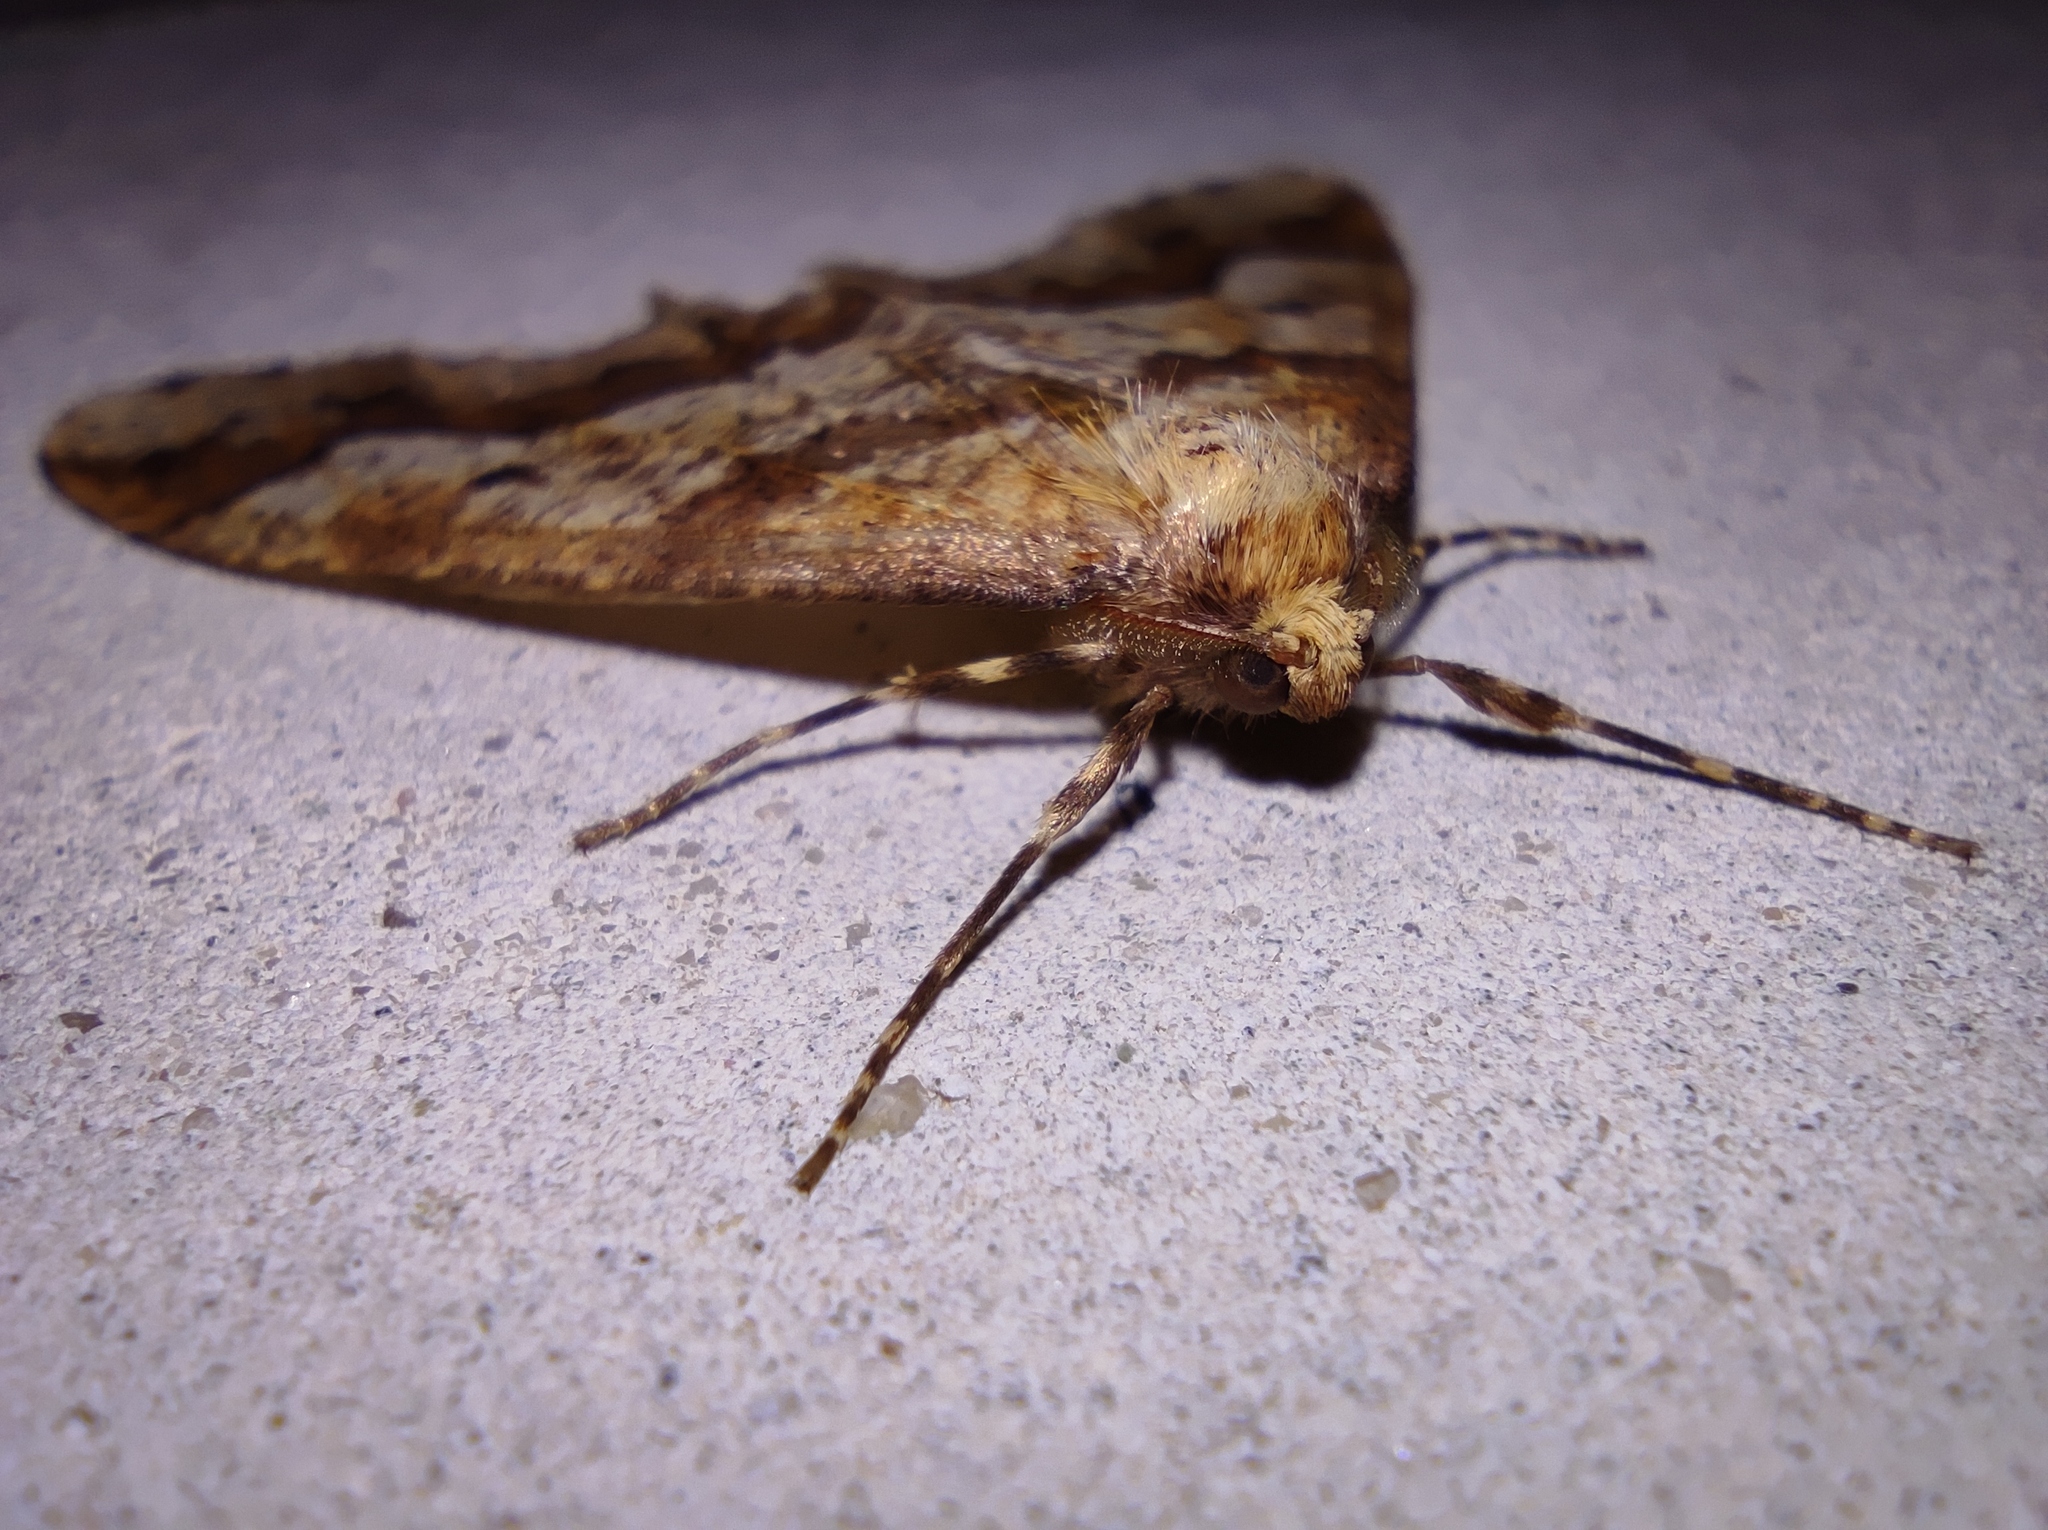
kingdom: Animalia
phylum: Arthropoda
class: Insecta
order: Lepidoptera
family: Geometridae
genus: Erannis
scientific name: Erannis defoliaria
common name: Mottled umber
